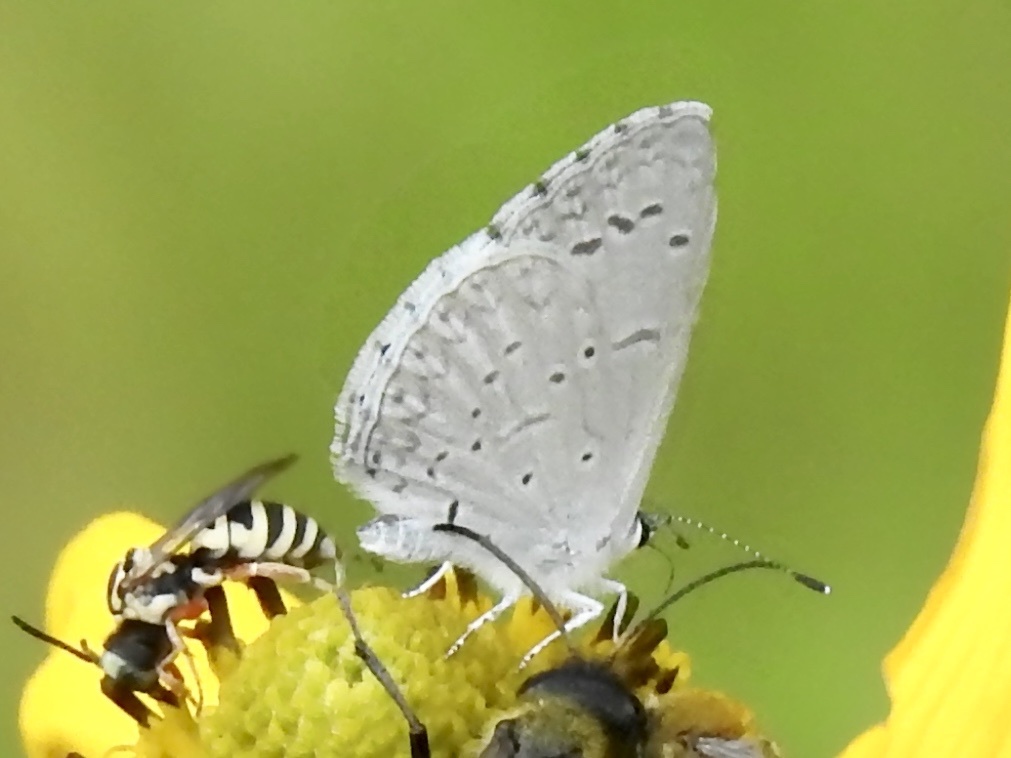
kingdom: Animalia
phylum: Arthropoda
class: Insecta
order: Lepidoptera
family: Lycaenidae
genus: Celastrina
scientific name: Celastrina ladon
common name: Spring azure
